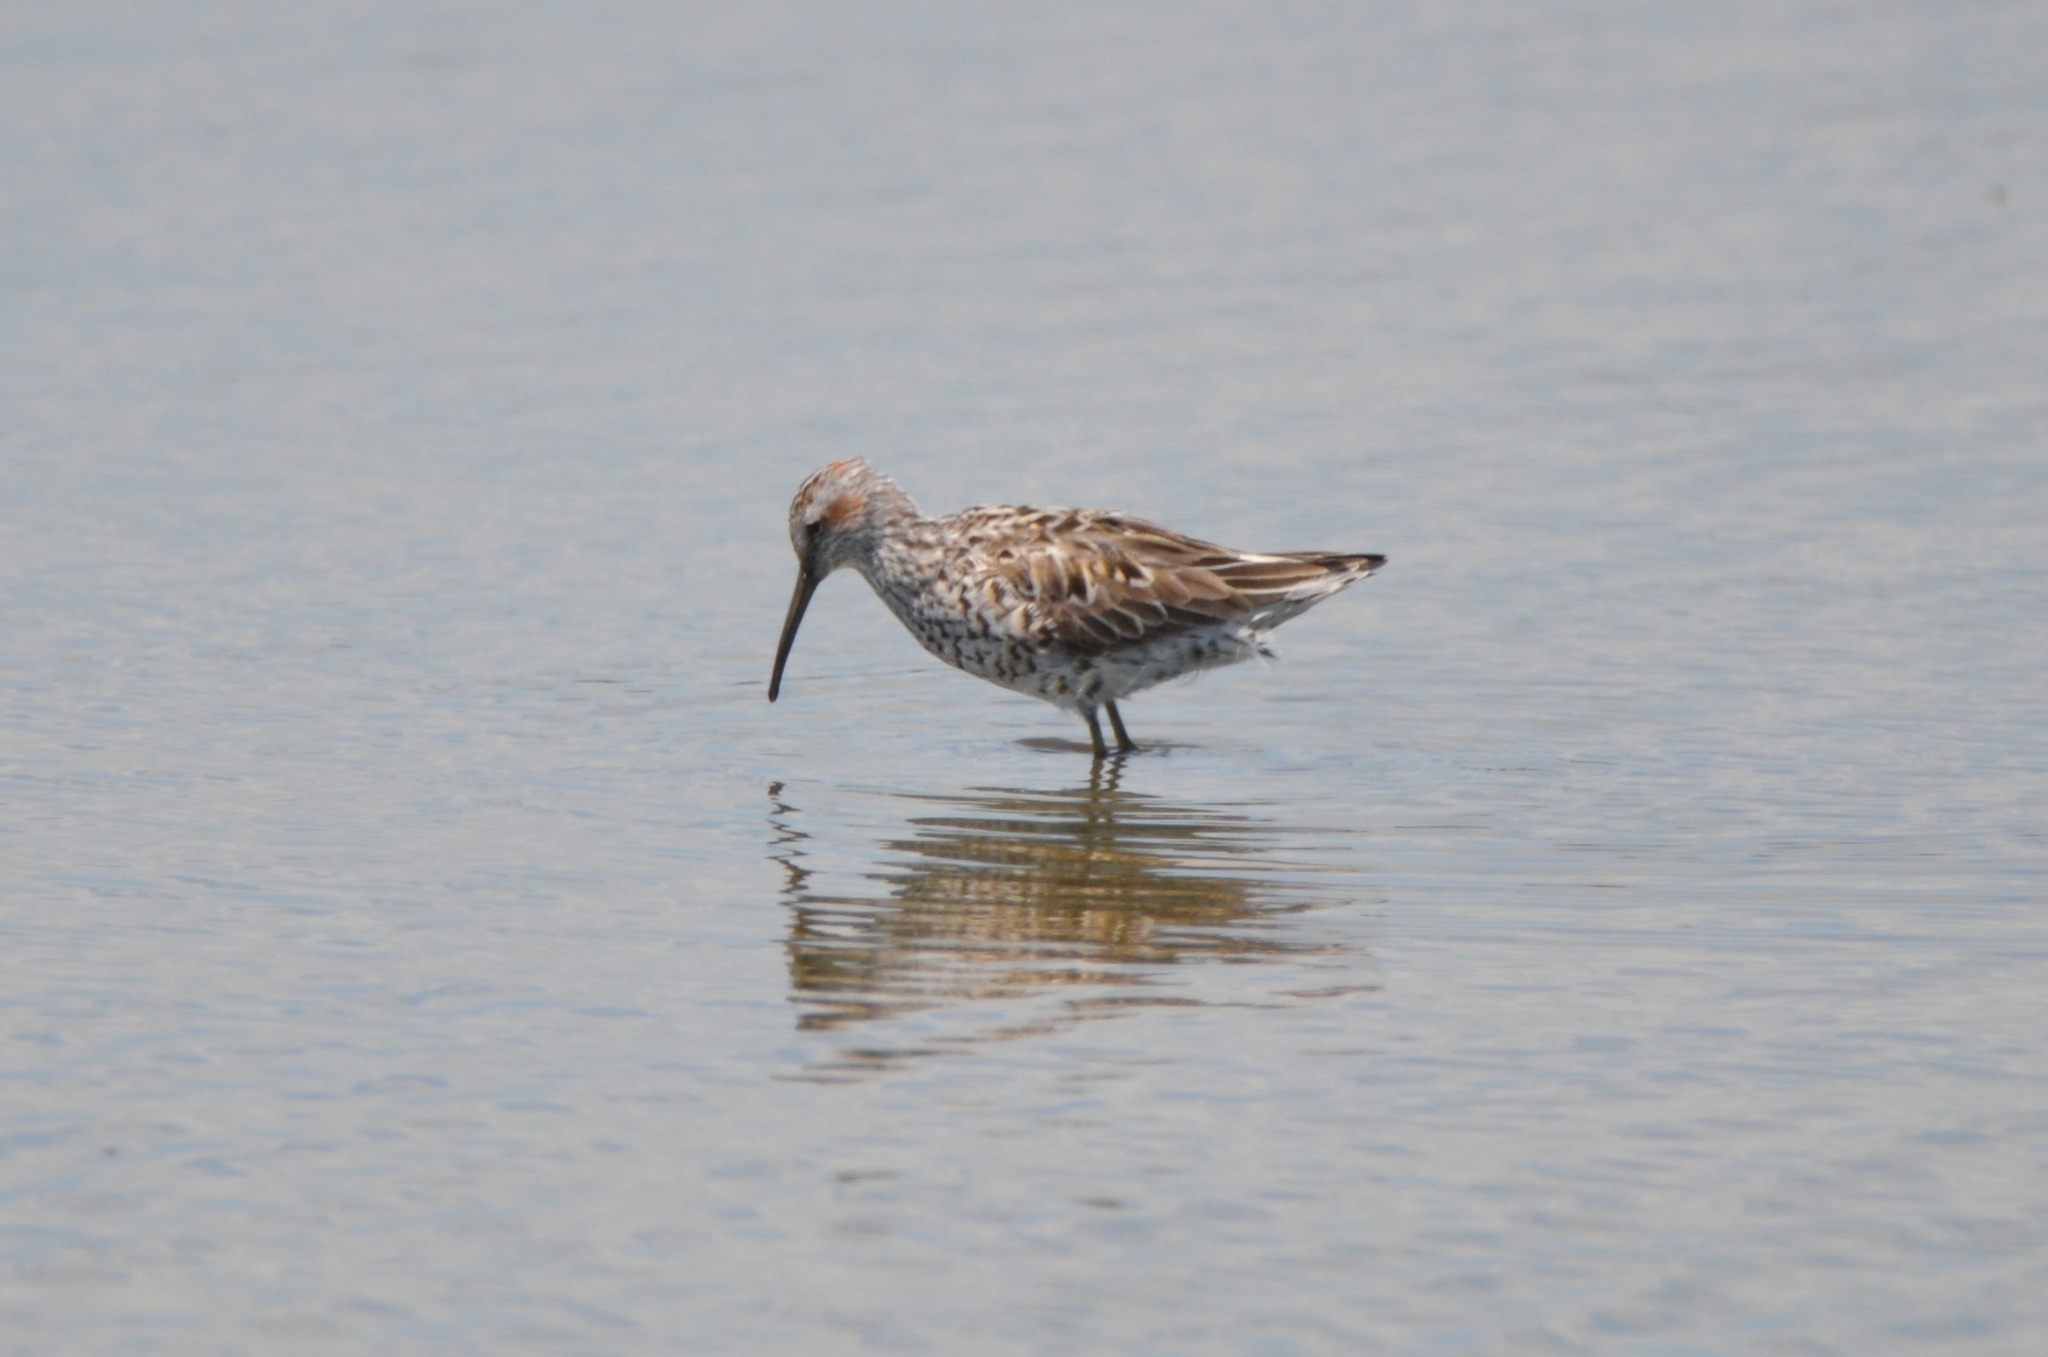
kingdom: Animalia
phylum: Chordata
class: Aves
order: Charadriiformes
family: Scolopacidae
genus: Calidris
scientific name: Calidris himantopus
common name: Stilt sandpiper
